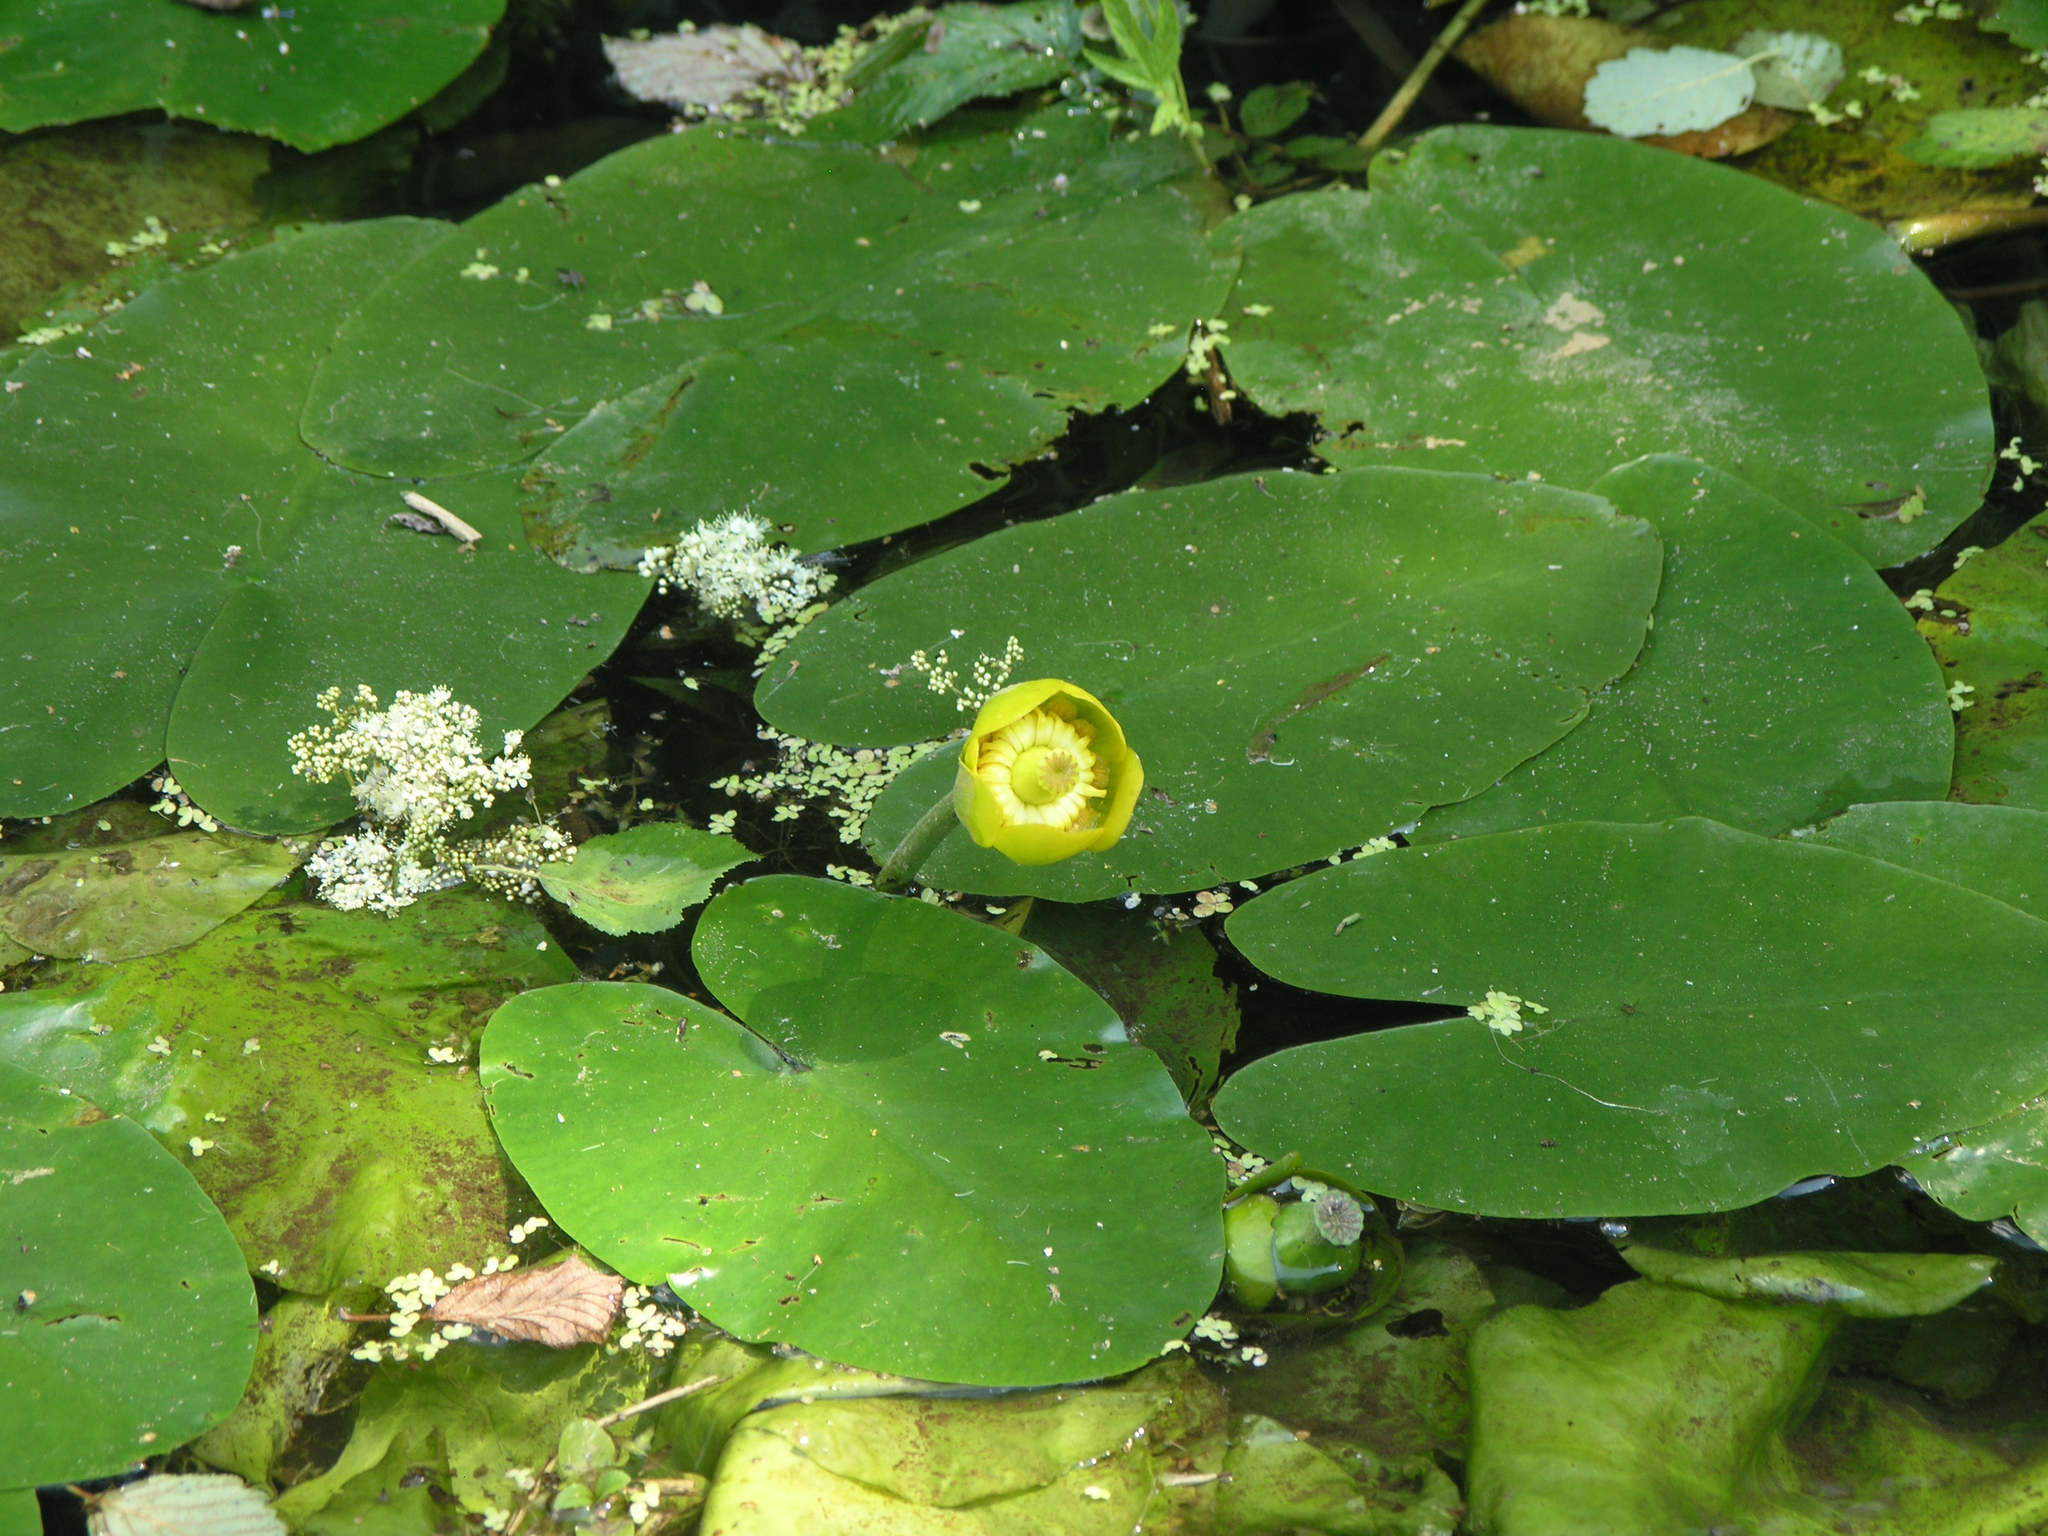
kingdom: Plantae
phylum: Tracheophyta
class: Magnoliopsida
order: Nymphaeales
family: Nymphaeaceae
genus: Nuphar
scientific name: Nuphar lutea
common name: Yellow water-lily
